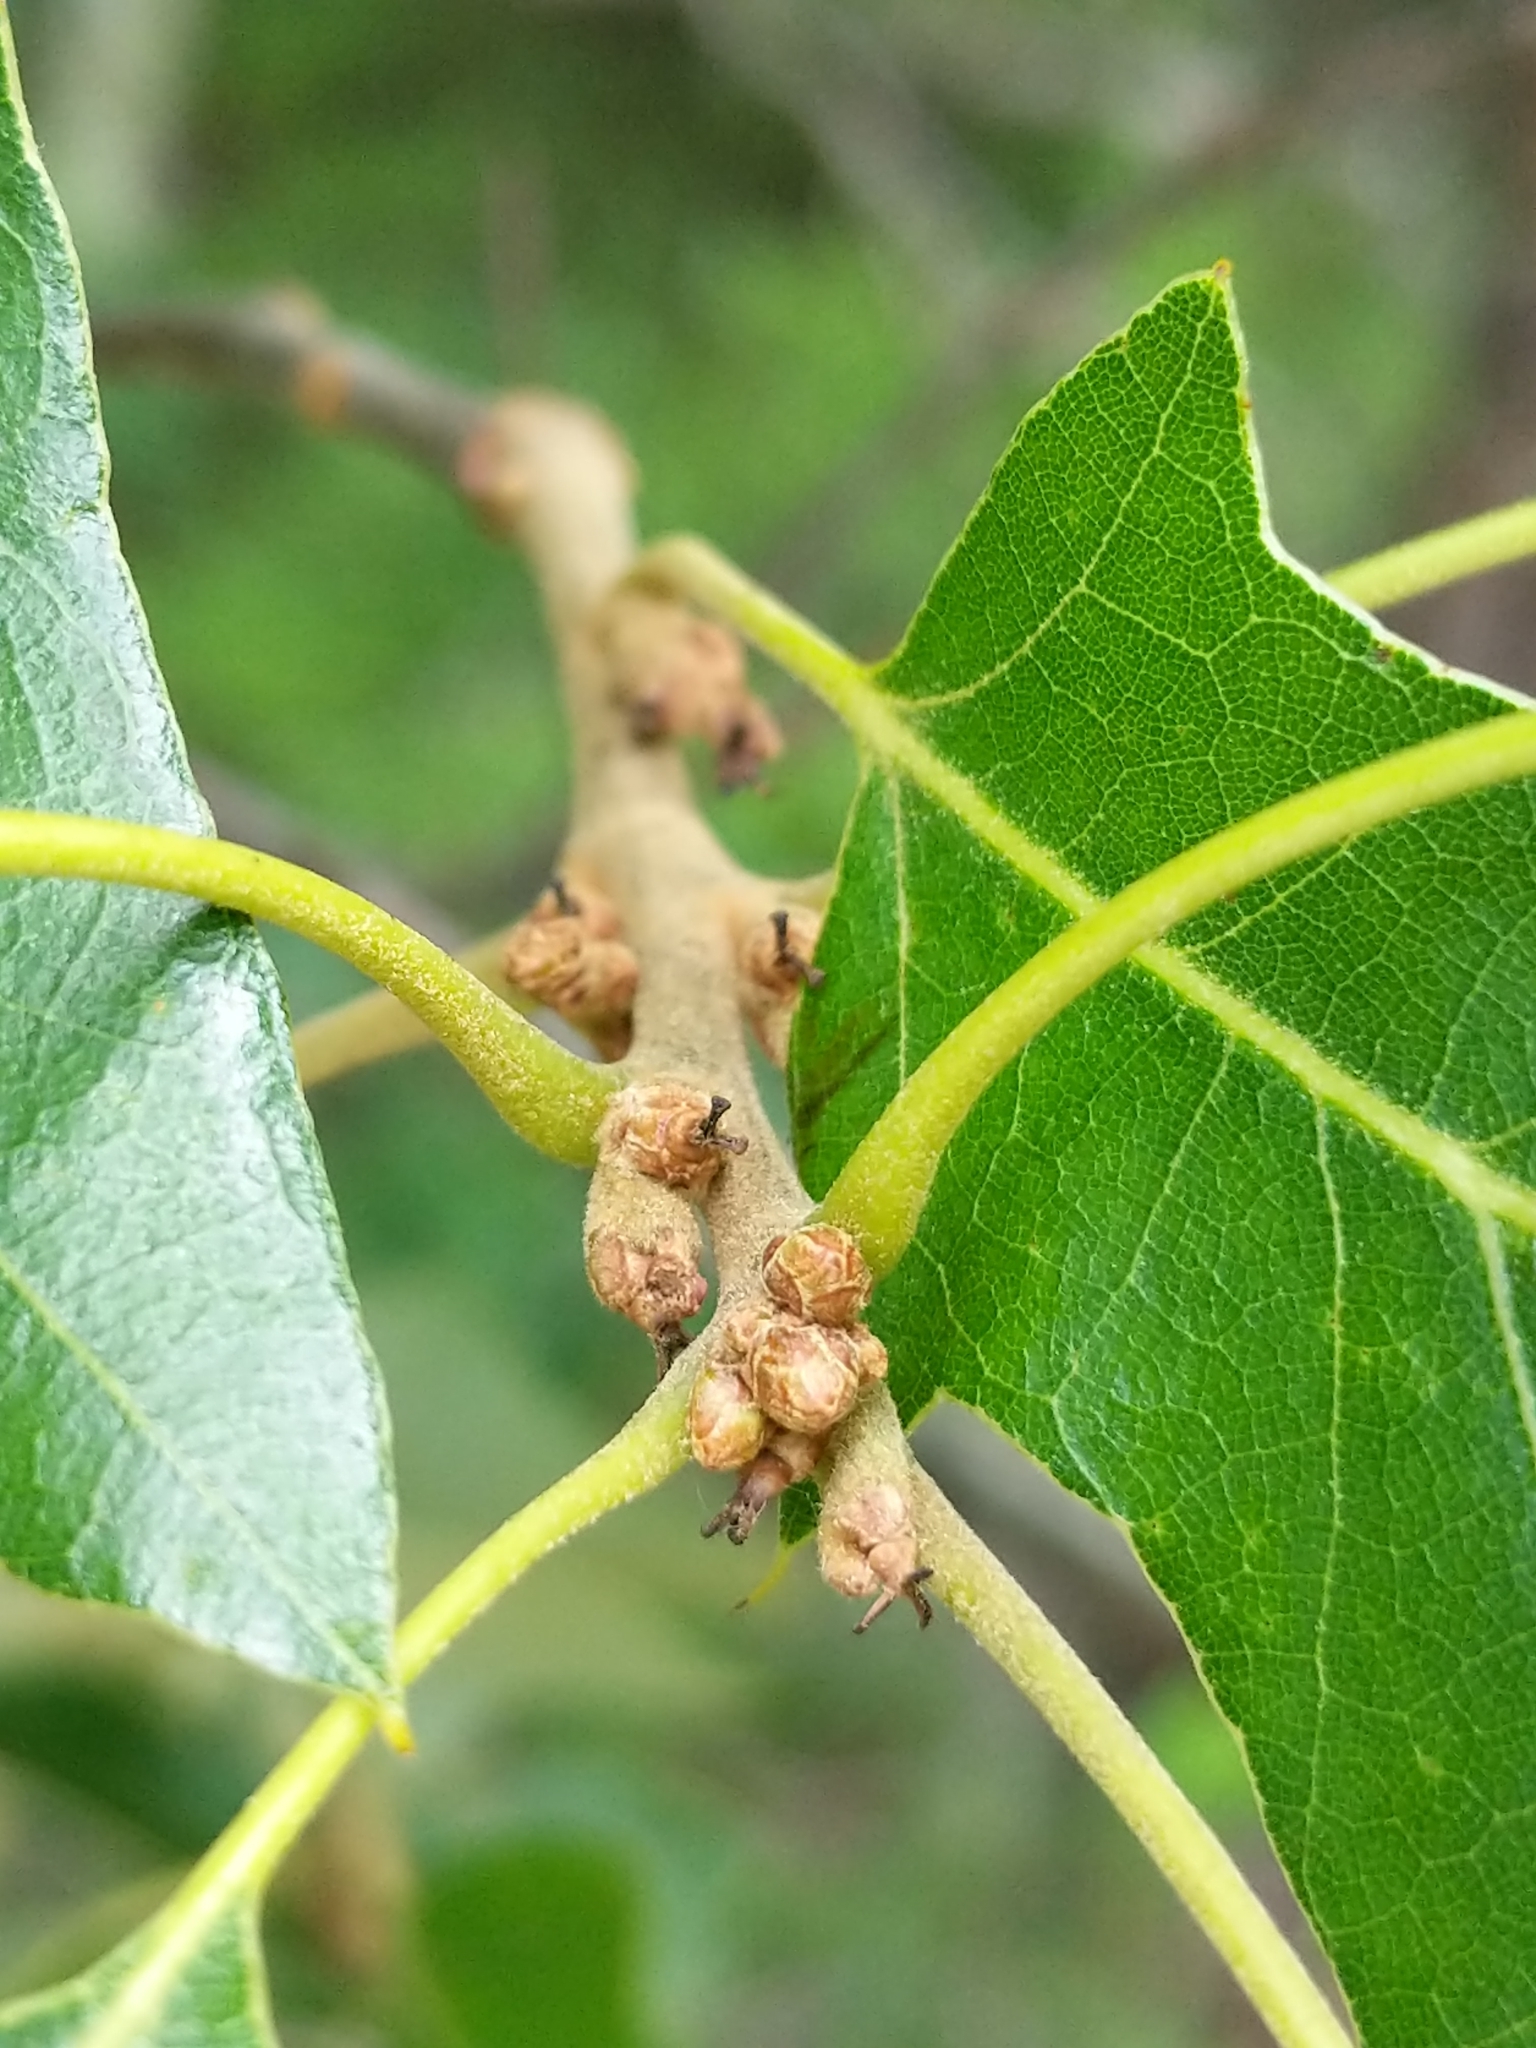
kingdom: Plantae
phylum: Tracheophyta
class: Magnoliopsida
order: Fagales
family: Fagaceae
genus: Quercus
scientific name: Quercus ilicifolia
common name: Bear oak
